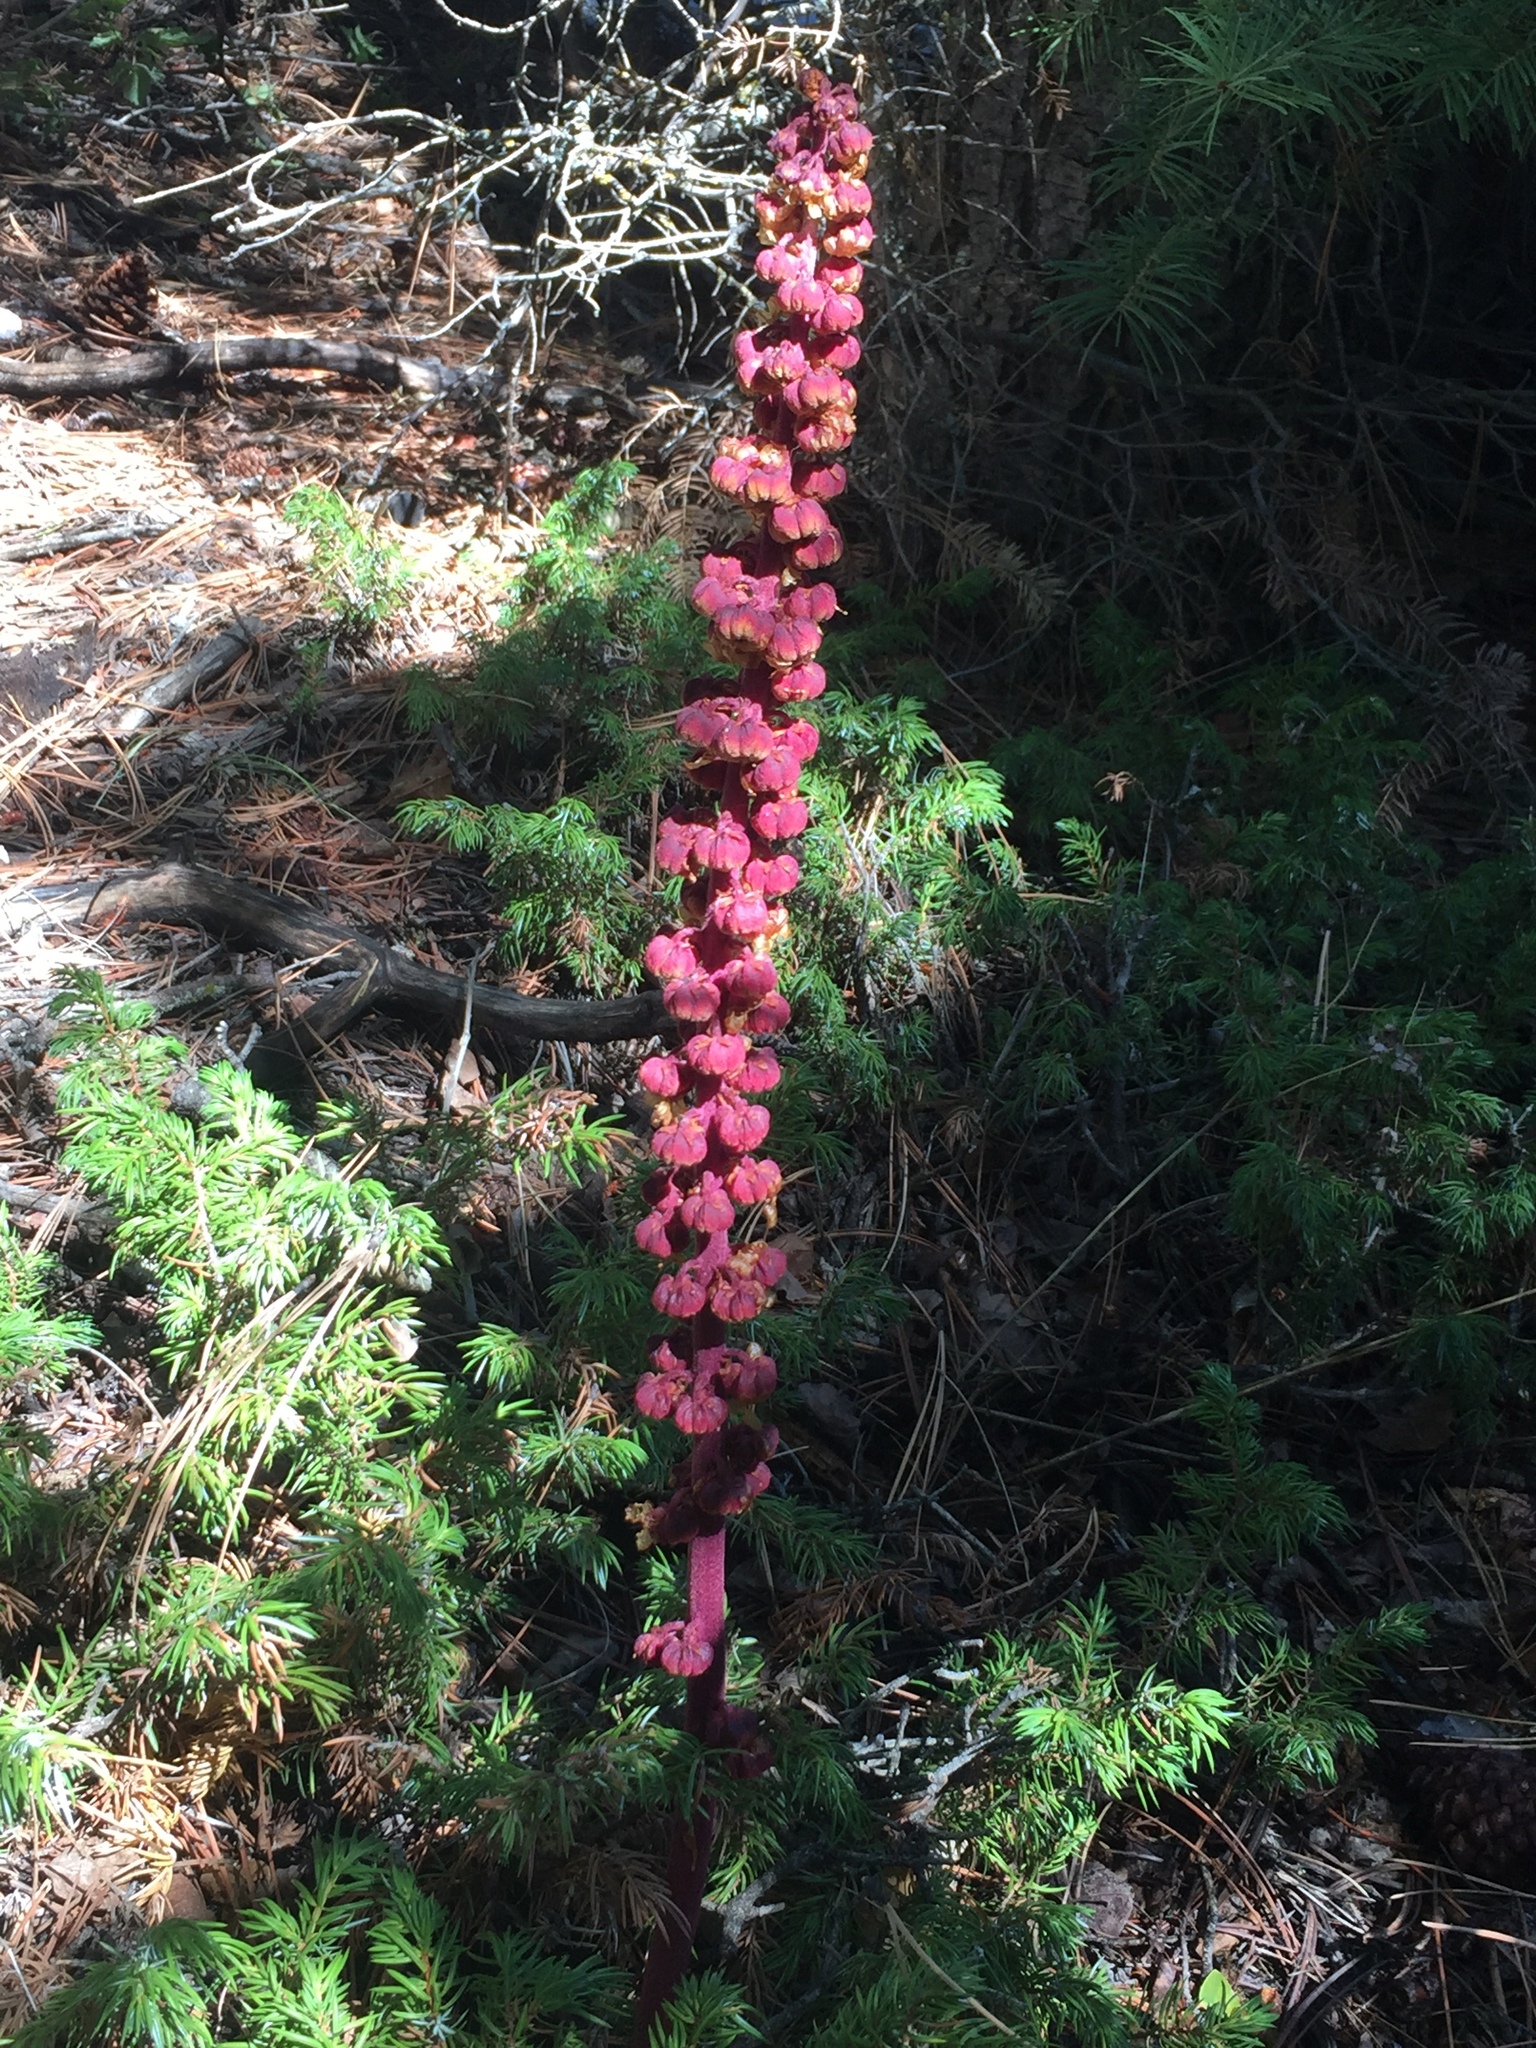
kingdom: Plantae
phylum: Tracheophyta
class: Magnoliopsida
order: Ericales
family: Ericaceae
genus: Pterospora
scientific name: Pterospora andromedea
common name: Giant bird's-nest
